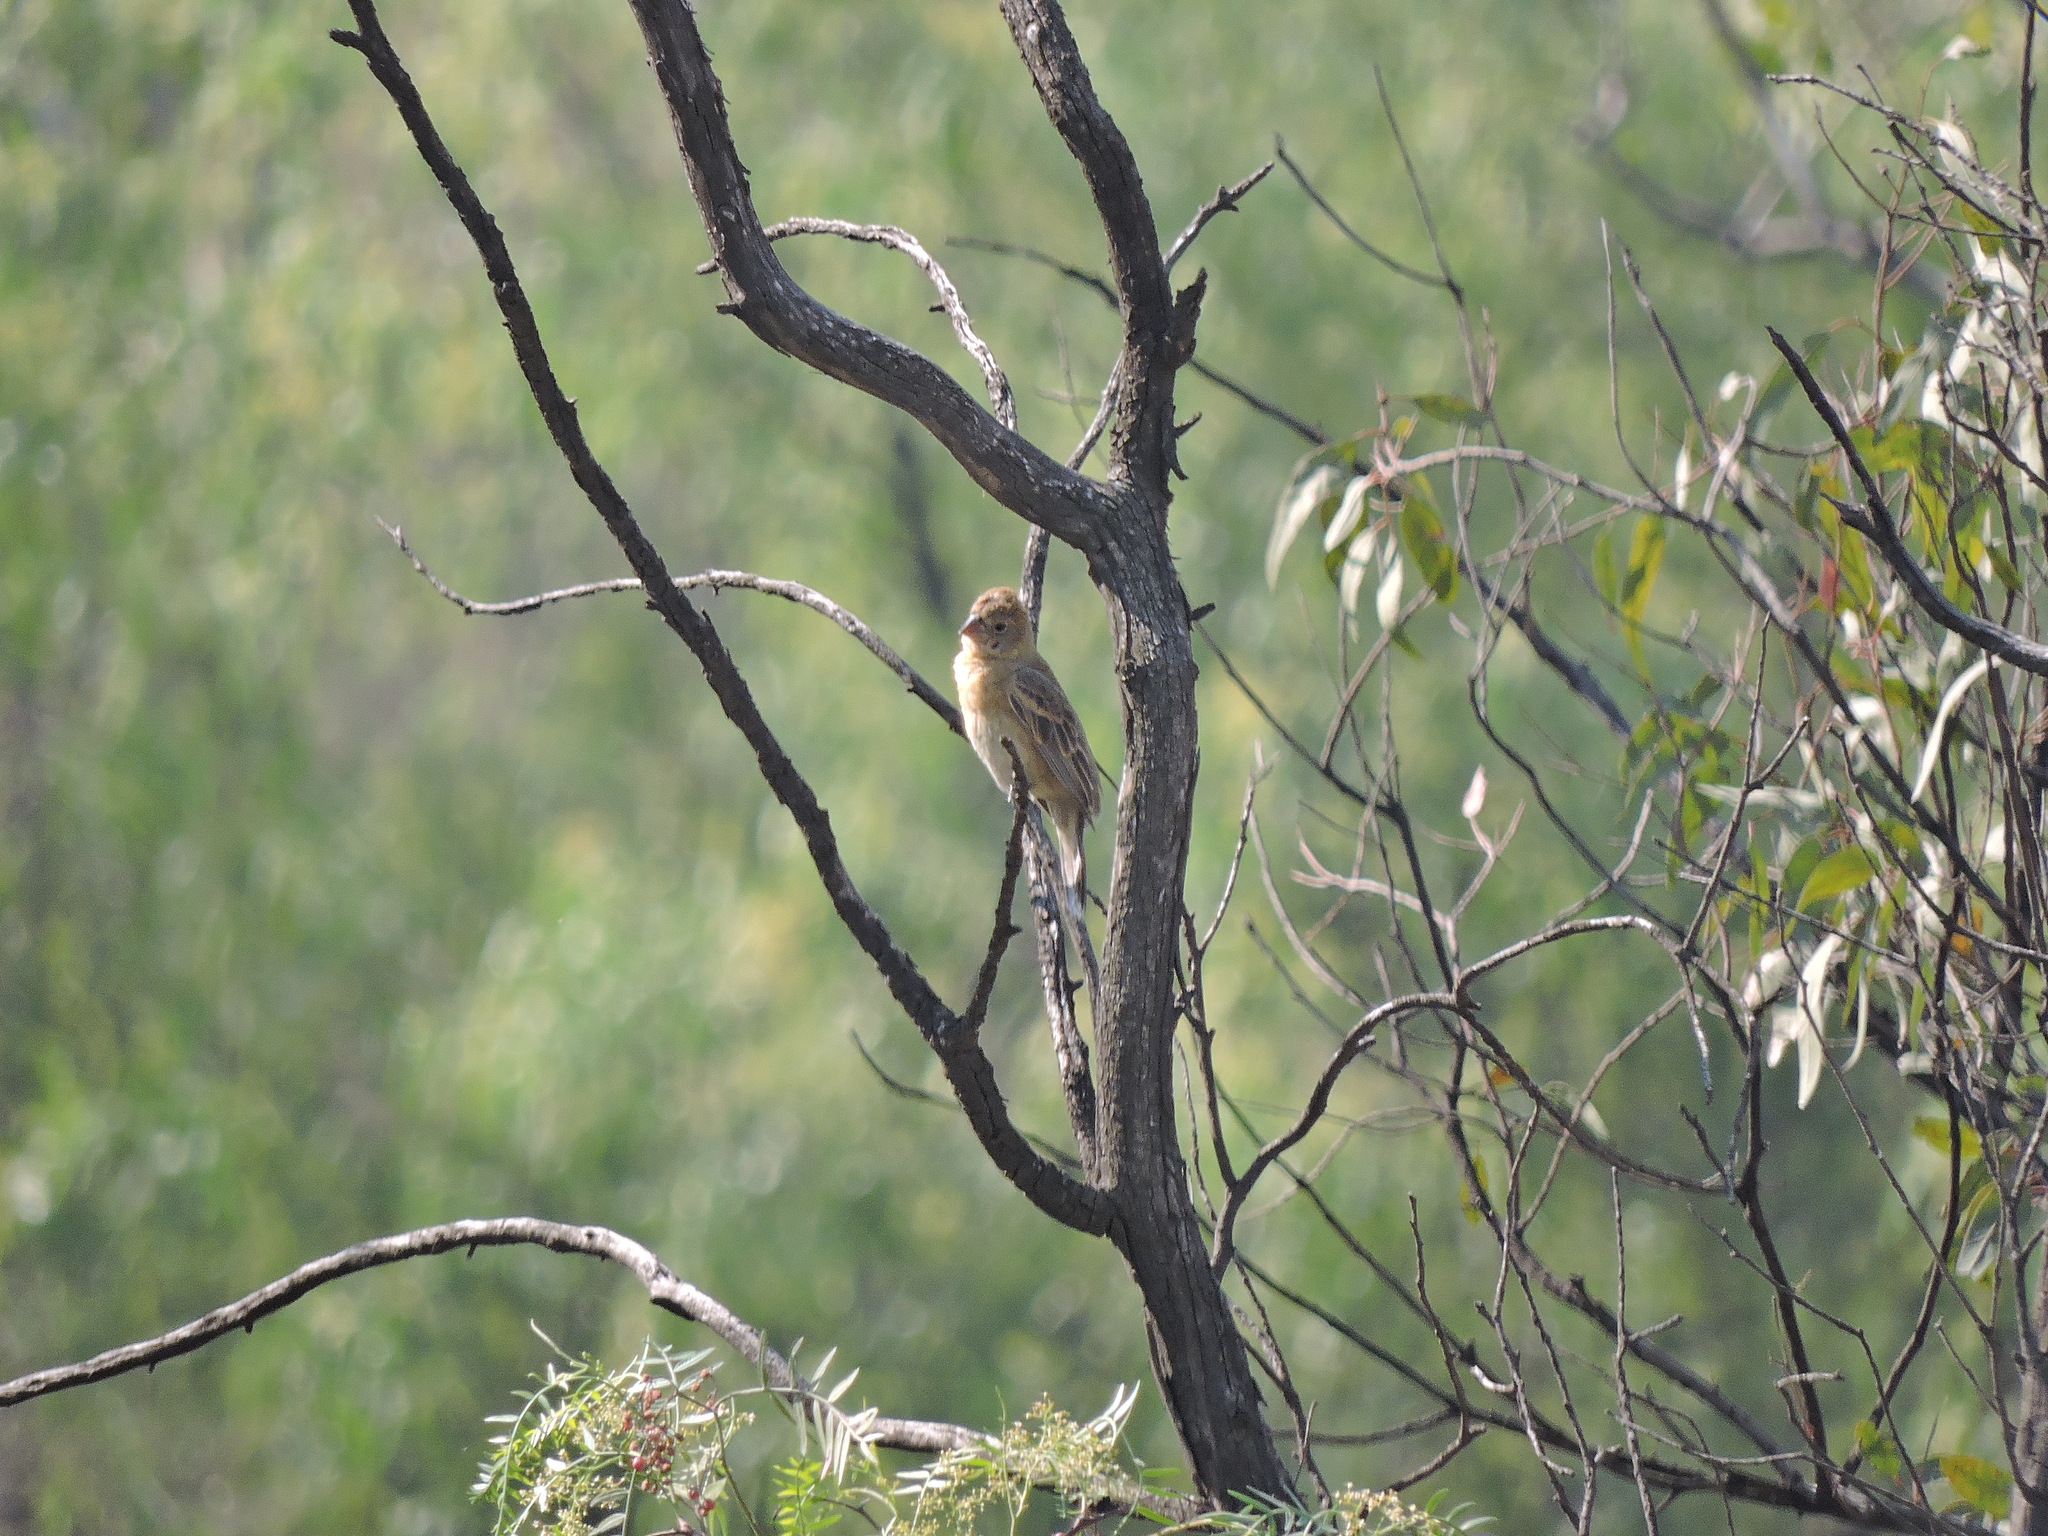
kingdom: Animalia
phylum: Chordata
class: Aves
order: Passeriformes
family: Cardinalidae
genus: Passerina
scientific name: Passerina caerulea
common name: Blue grosbeak
